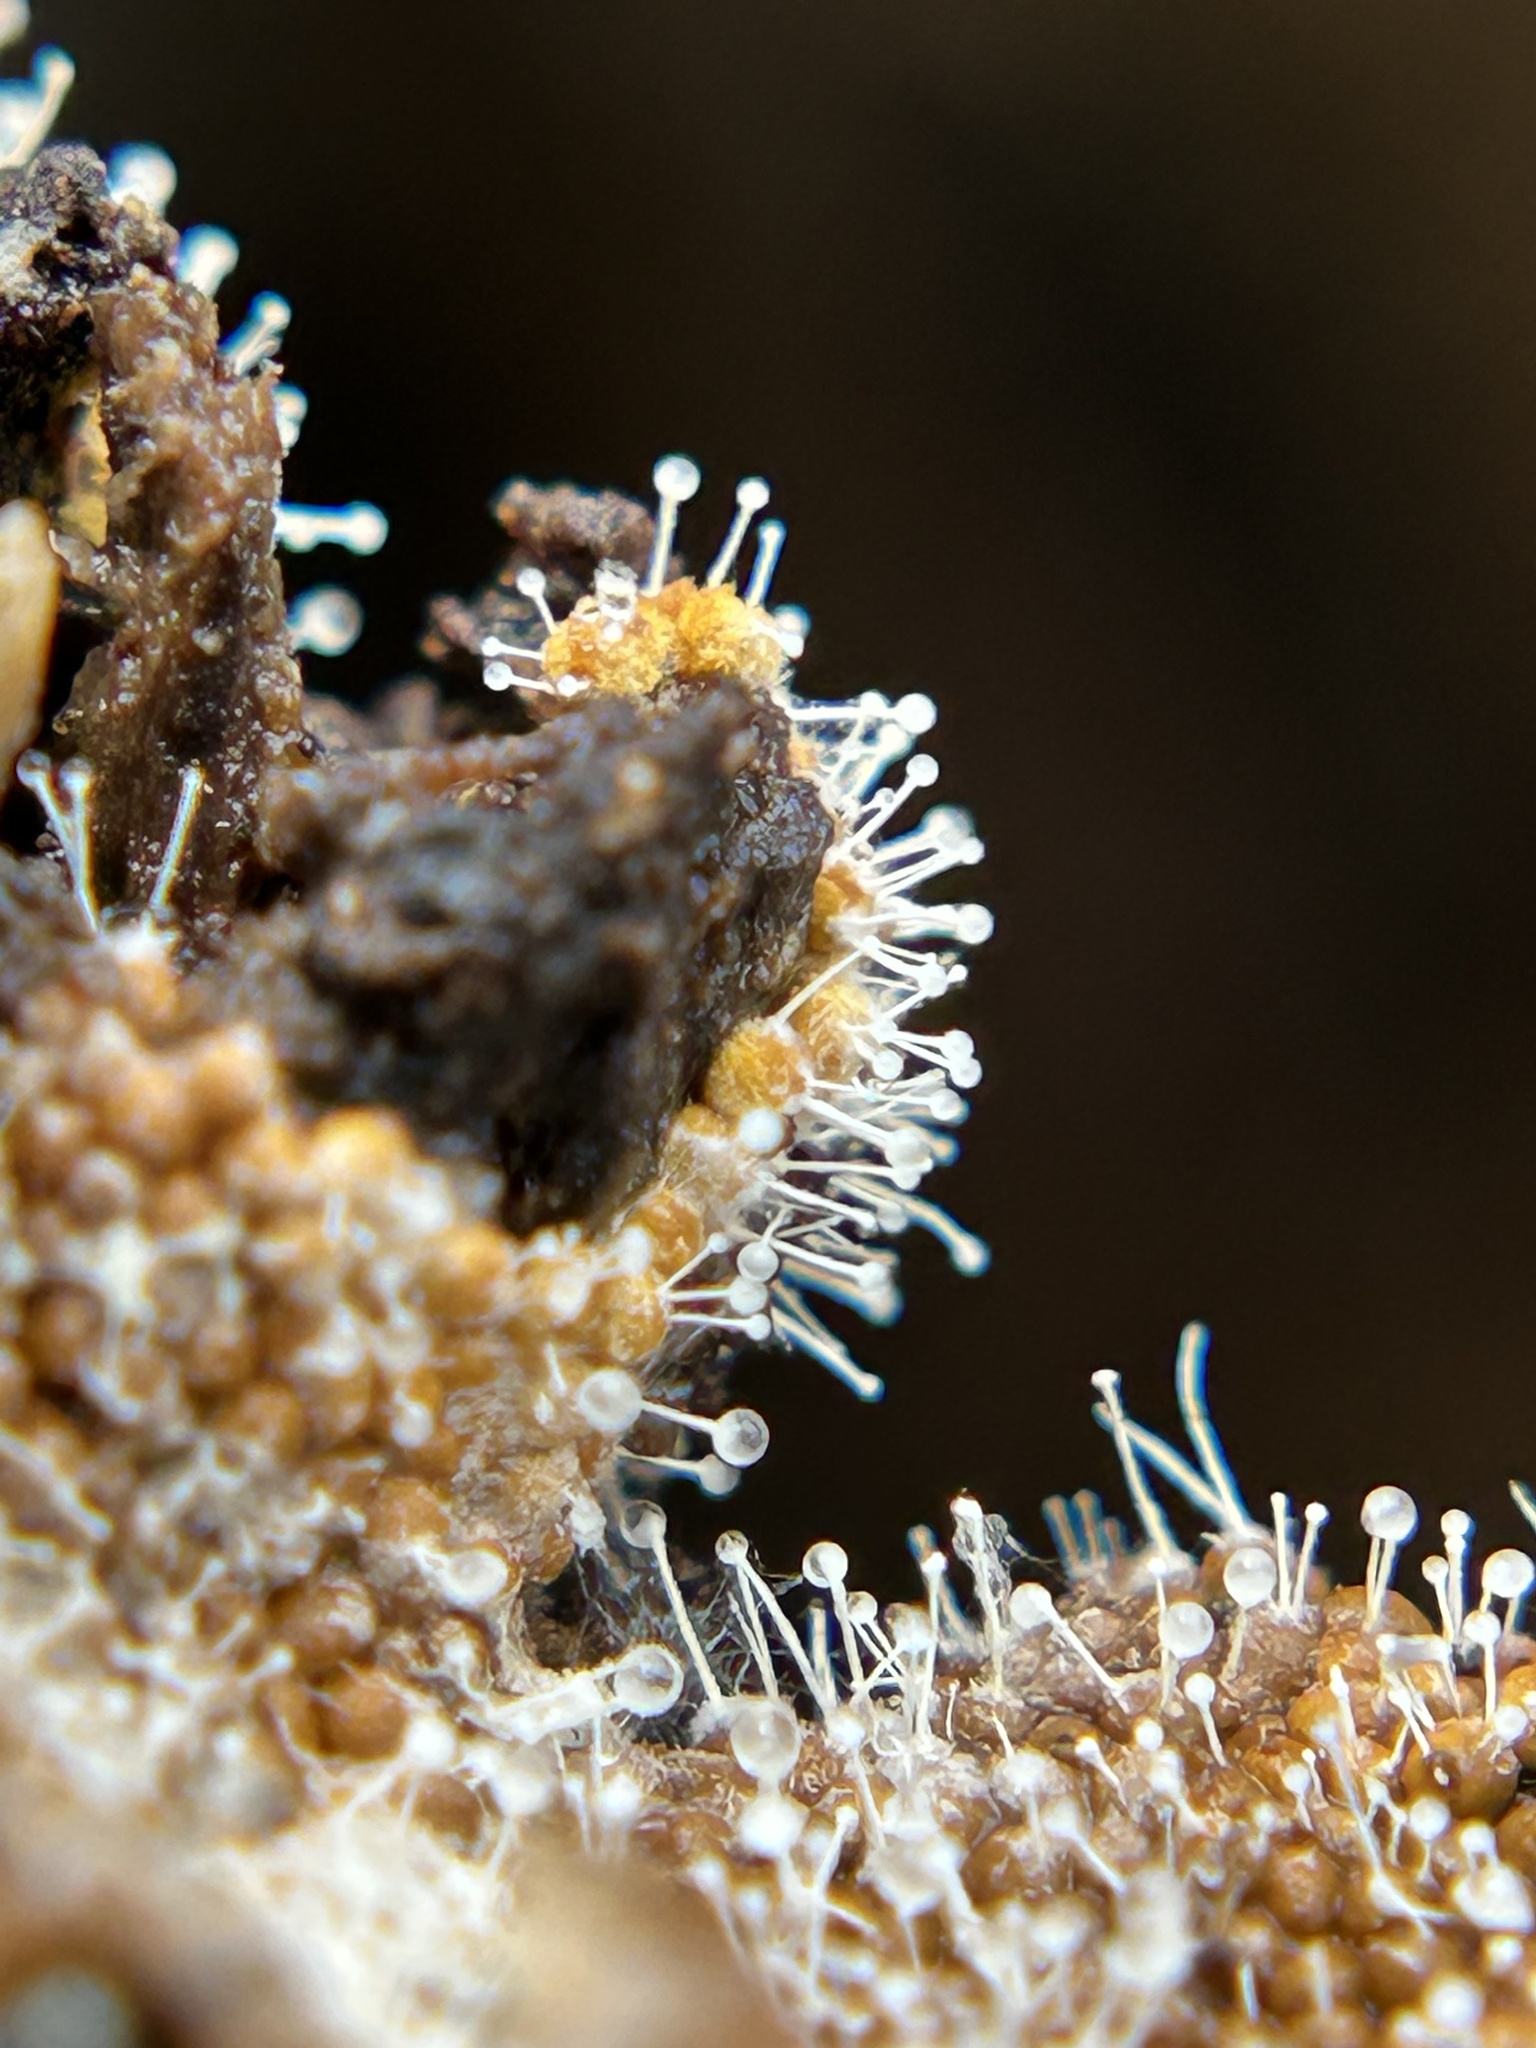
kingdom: Fungi
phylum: Ascomycota
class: Sordariomycetes
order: Hypocreales
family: Ophiocordycipitaceae
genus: Polycephalomyces
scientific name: Polycephalomyces tomentosus
